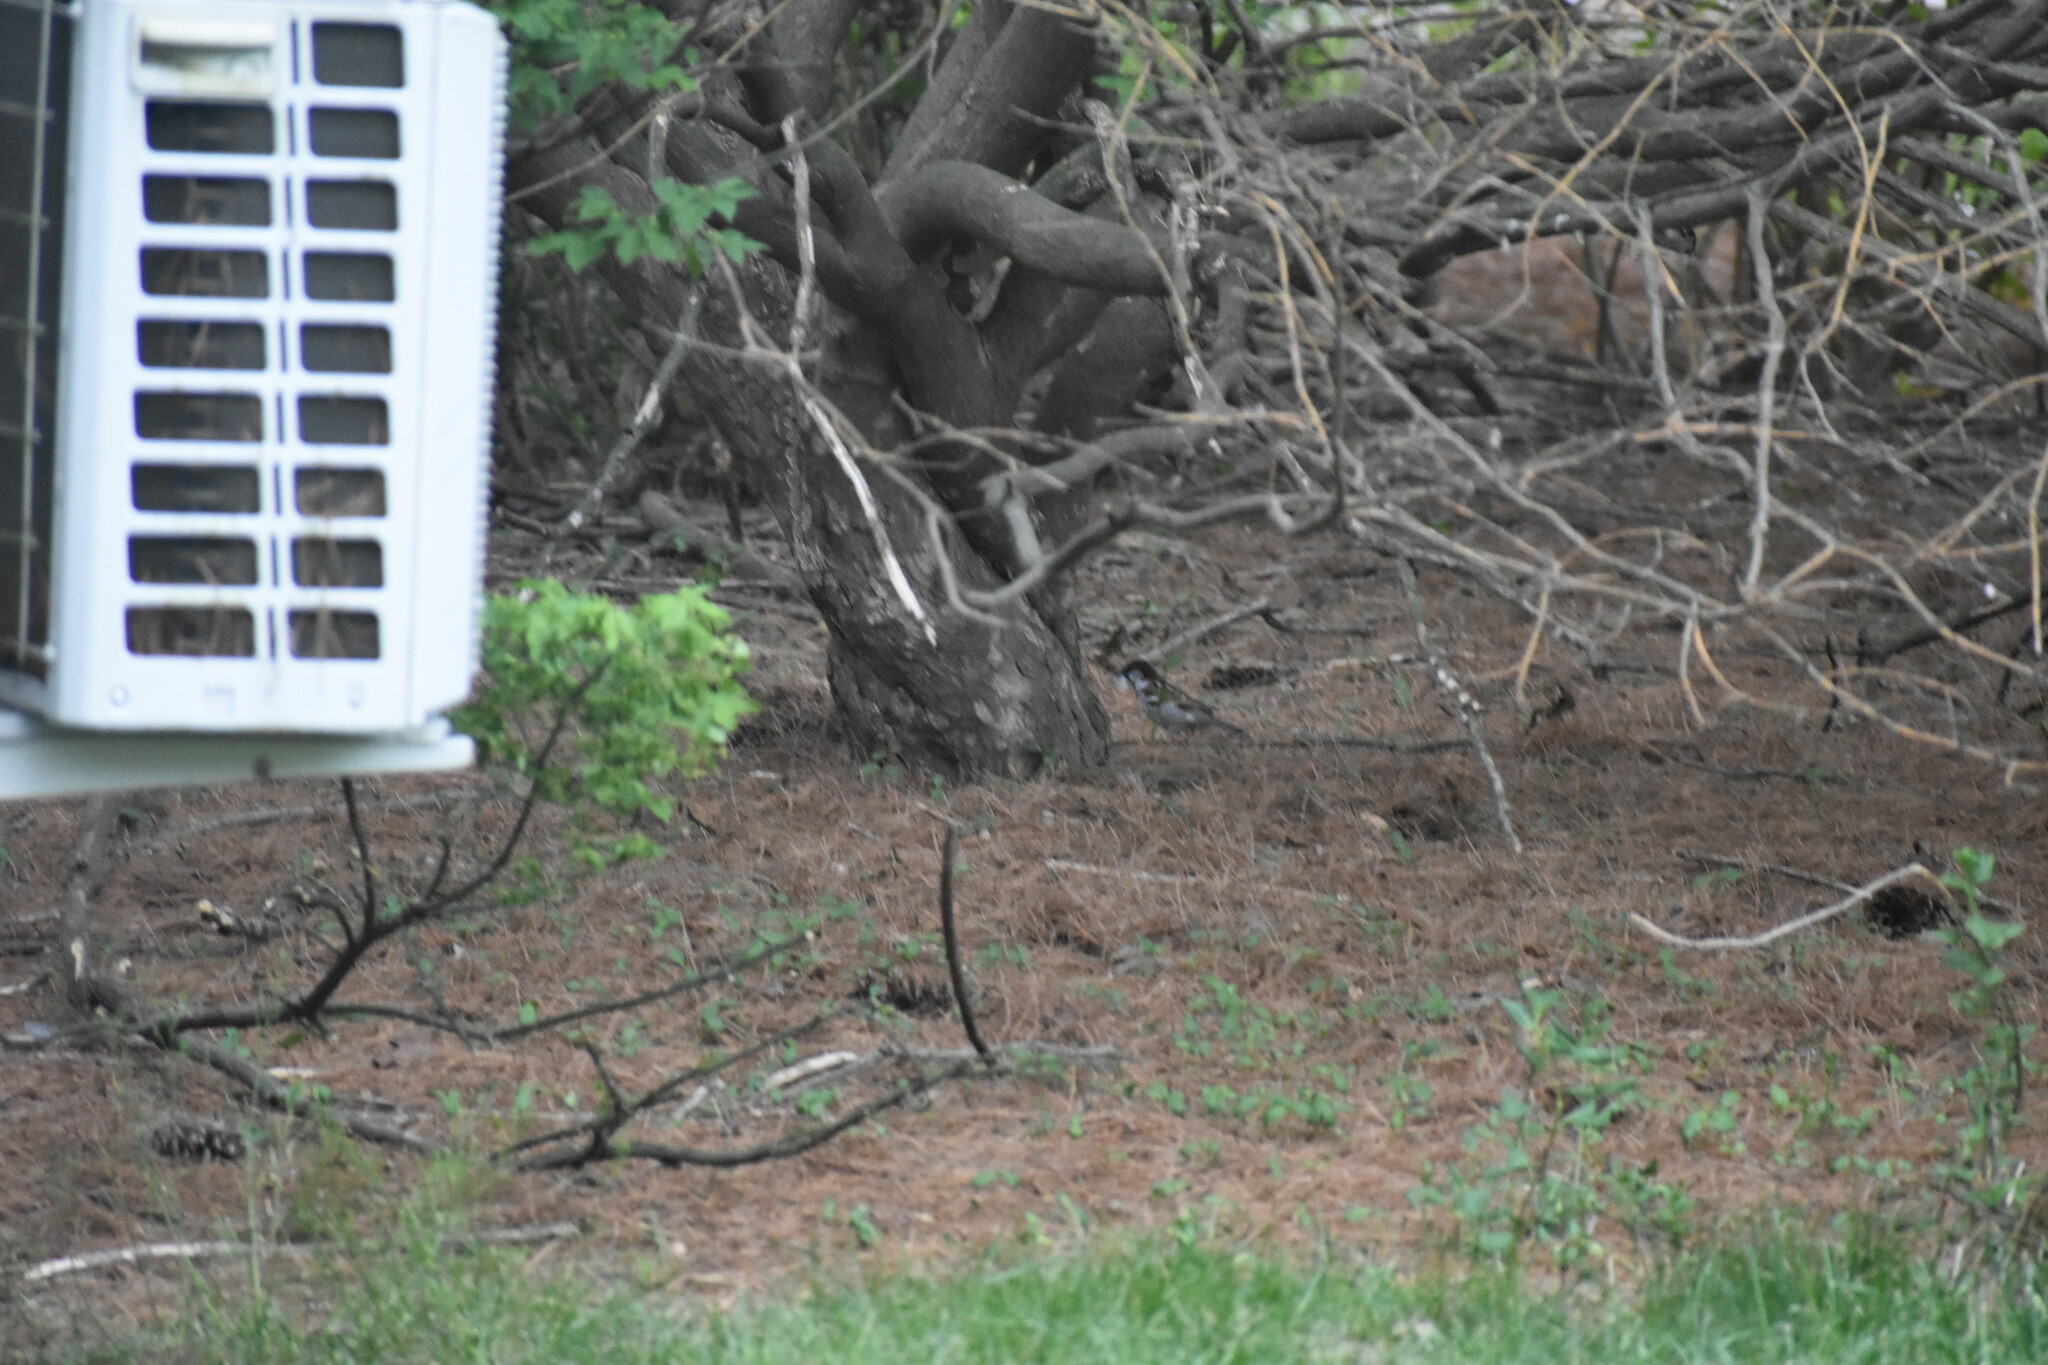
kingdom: Animalia
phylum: Chordata
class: Aves
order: Passeriformes
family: Passeridae
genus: Passer
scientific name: Passer domesticus
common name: House sparrow
